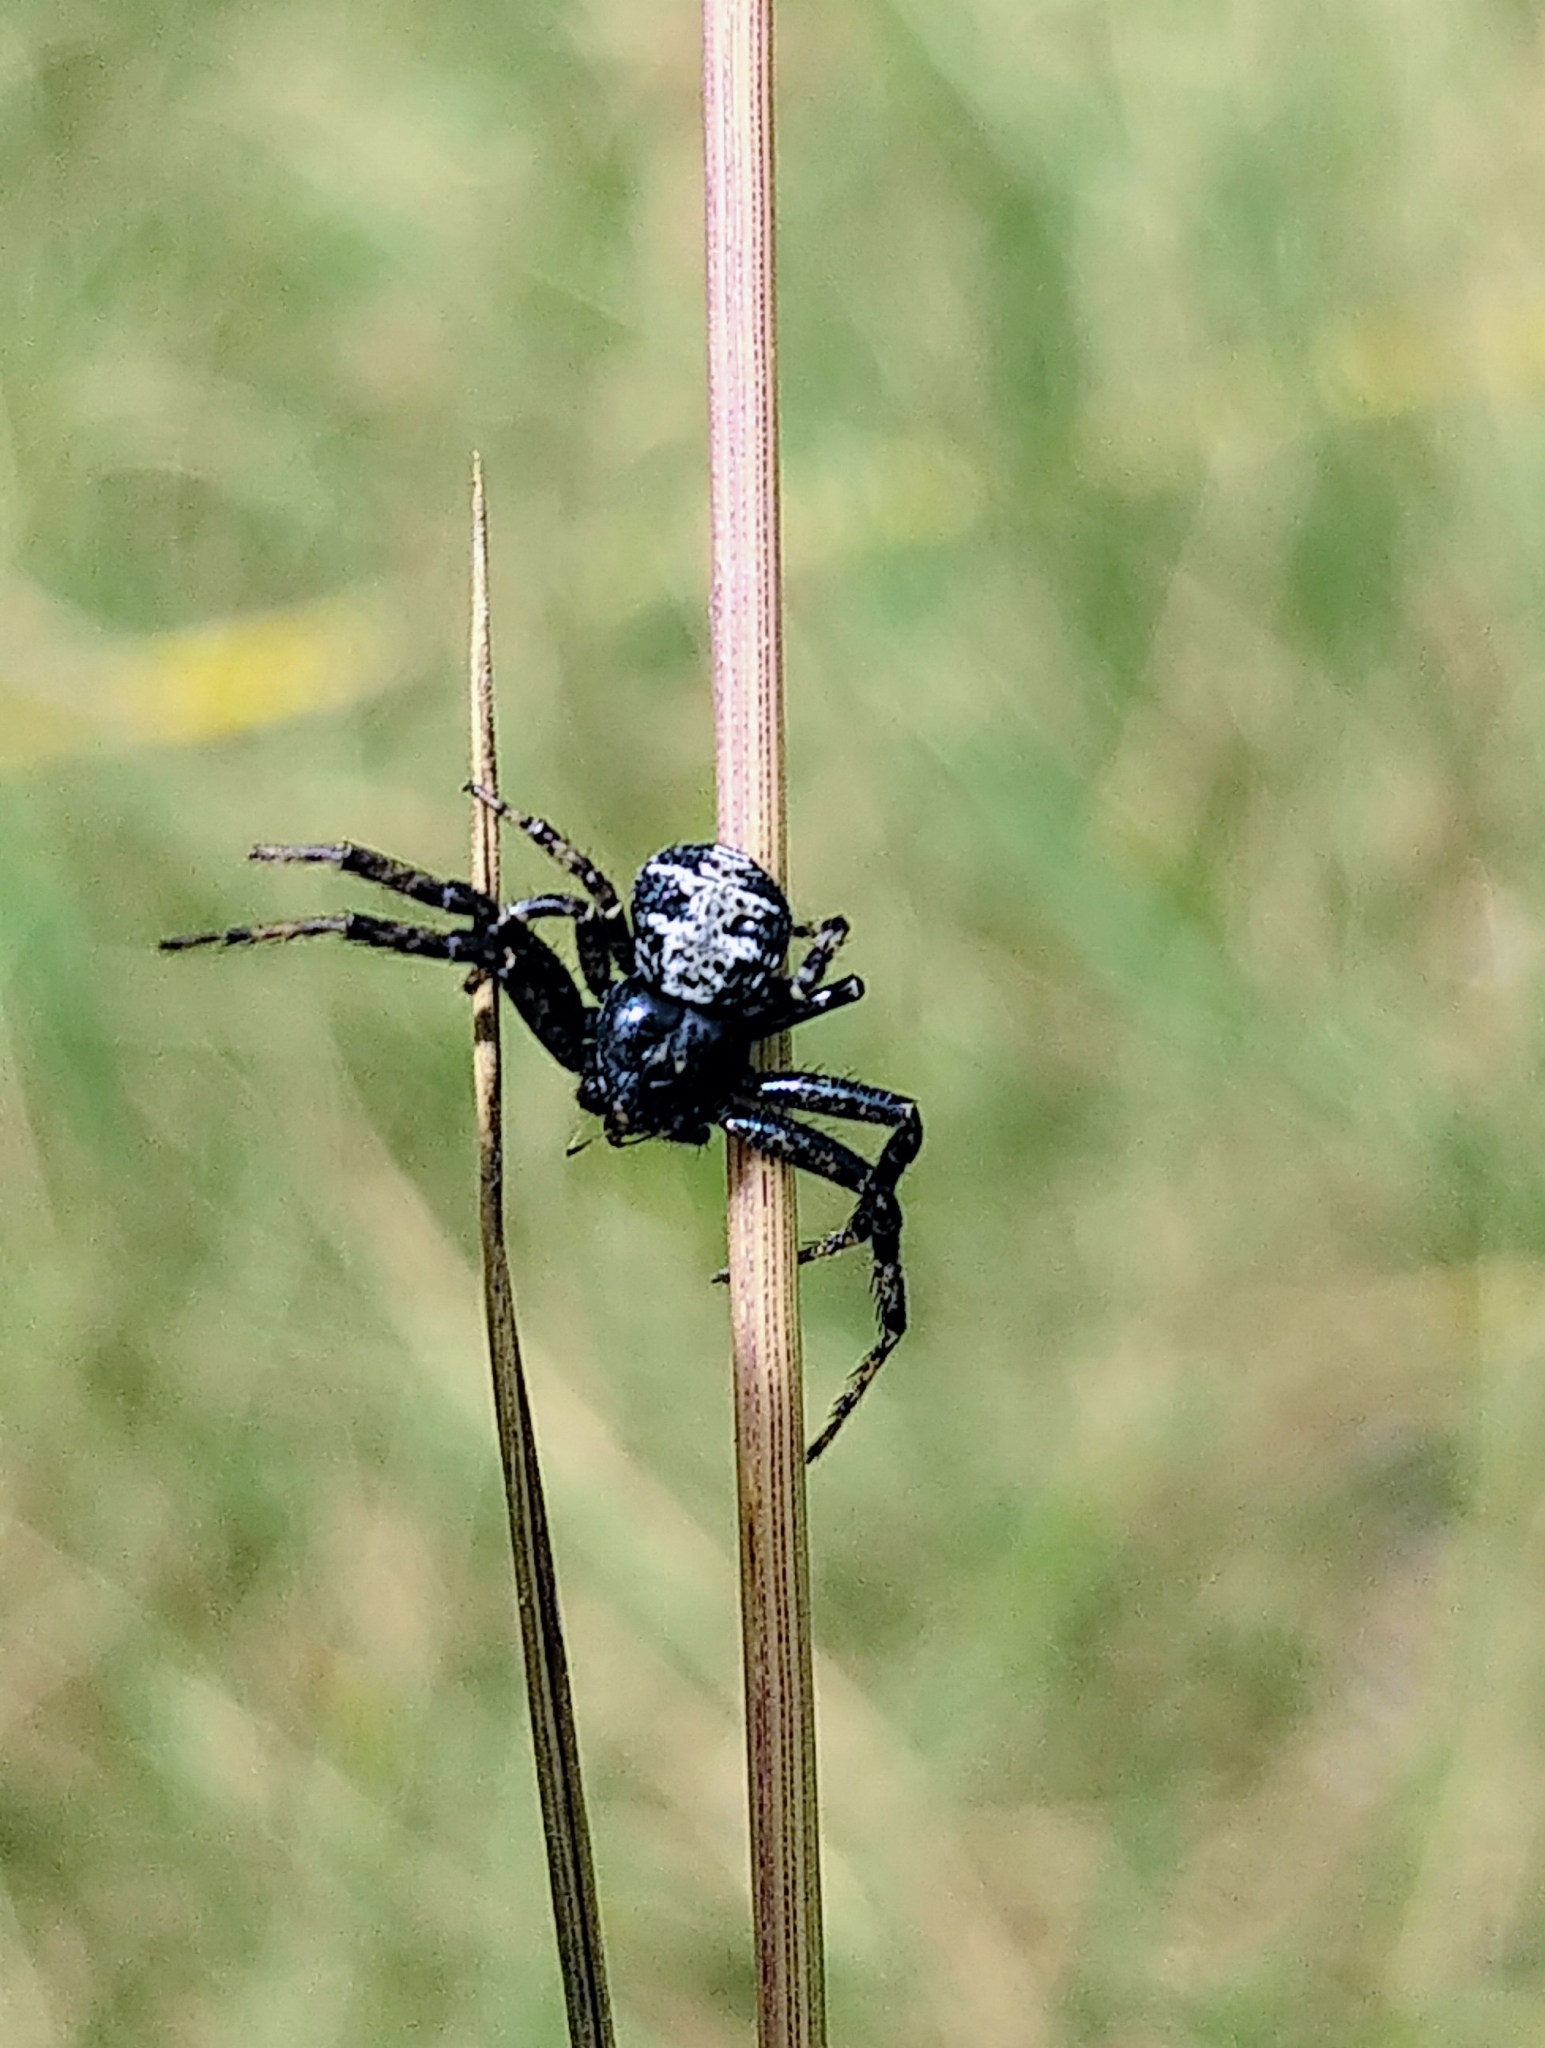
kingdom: Animalia
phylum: Arthropoda
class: Arachnida
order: Araneae
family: Thomisidae
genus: Bassaniana
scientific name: Bassaniana utahensis
